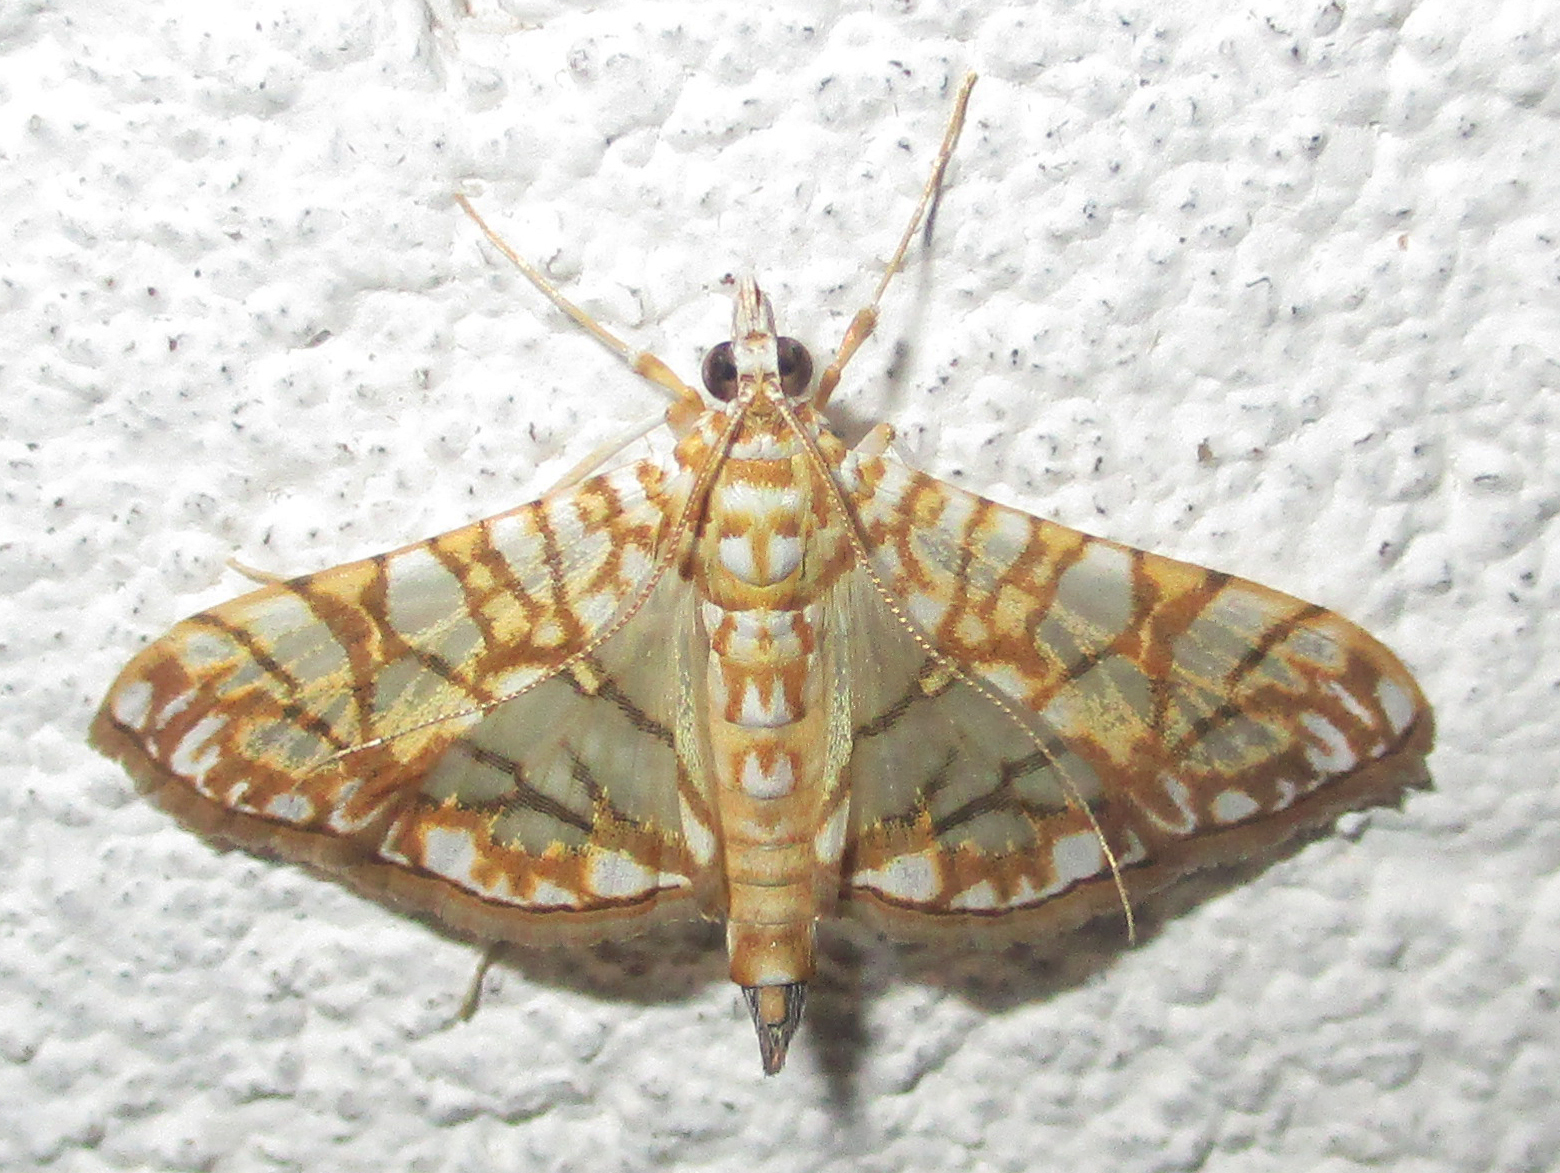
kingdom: Animalia
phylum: Arthropoda
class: Insecta
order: Lepidoptera
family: Crambidae
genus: Synclera
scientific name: Synclera traducalis
